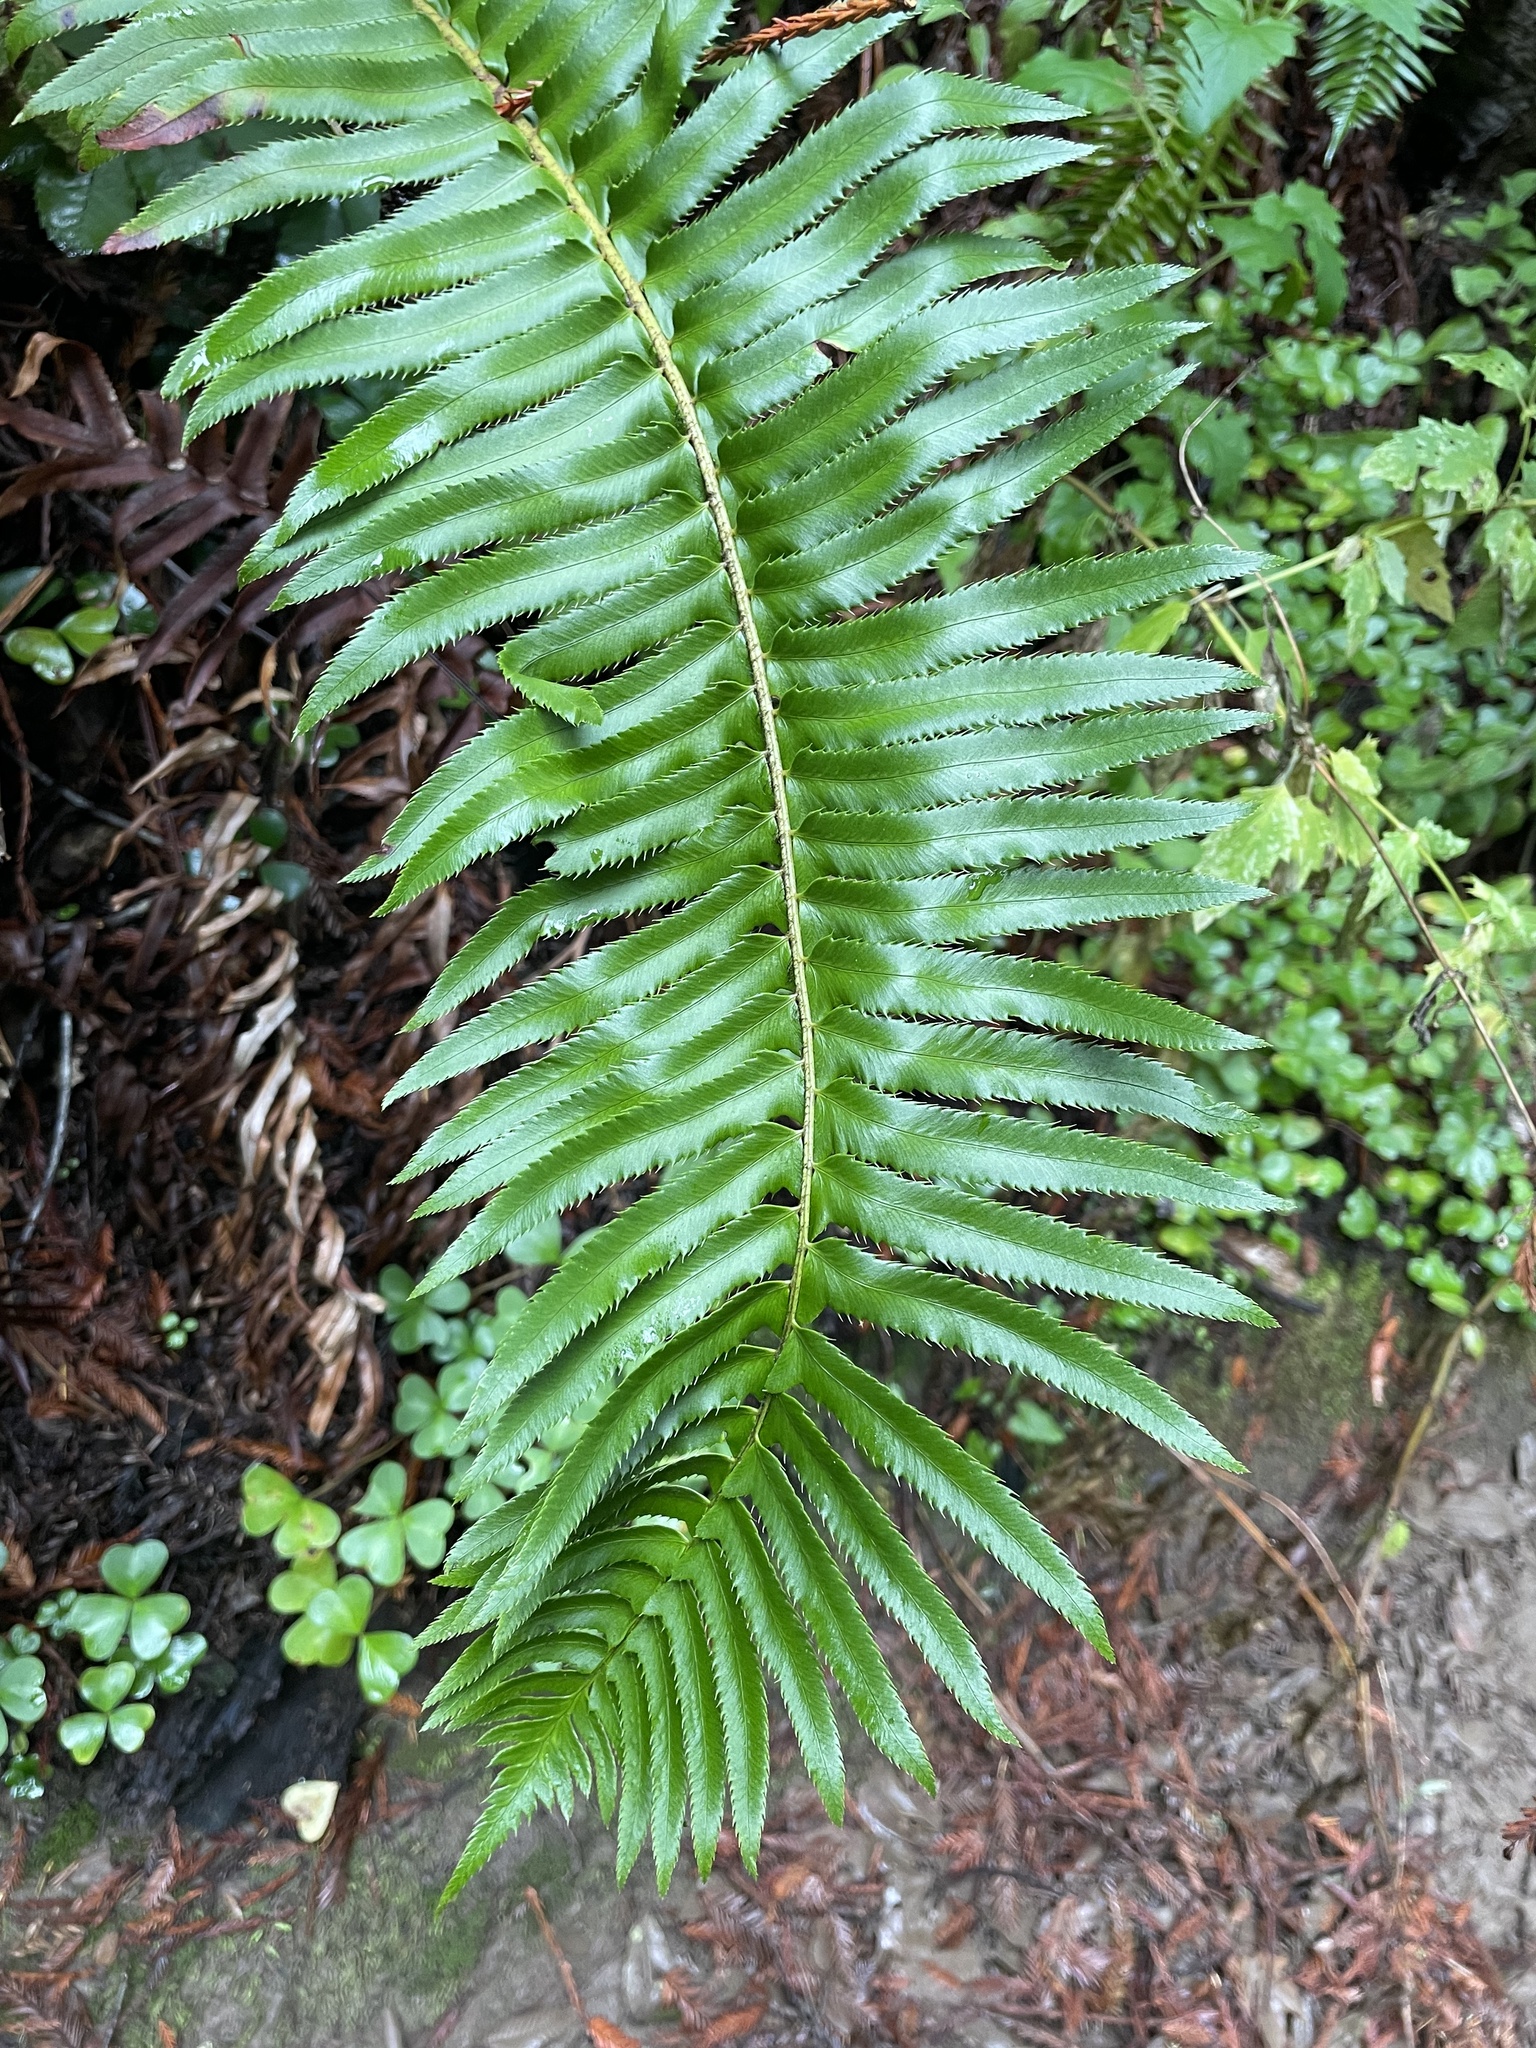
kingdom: Plantae
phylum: Tracheophyta
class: Polypodiopsida
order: Polypodiales
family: Dryopteridaceae
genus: Polystichum
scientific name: Polystichum munitum
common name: Western sword-fern
